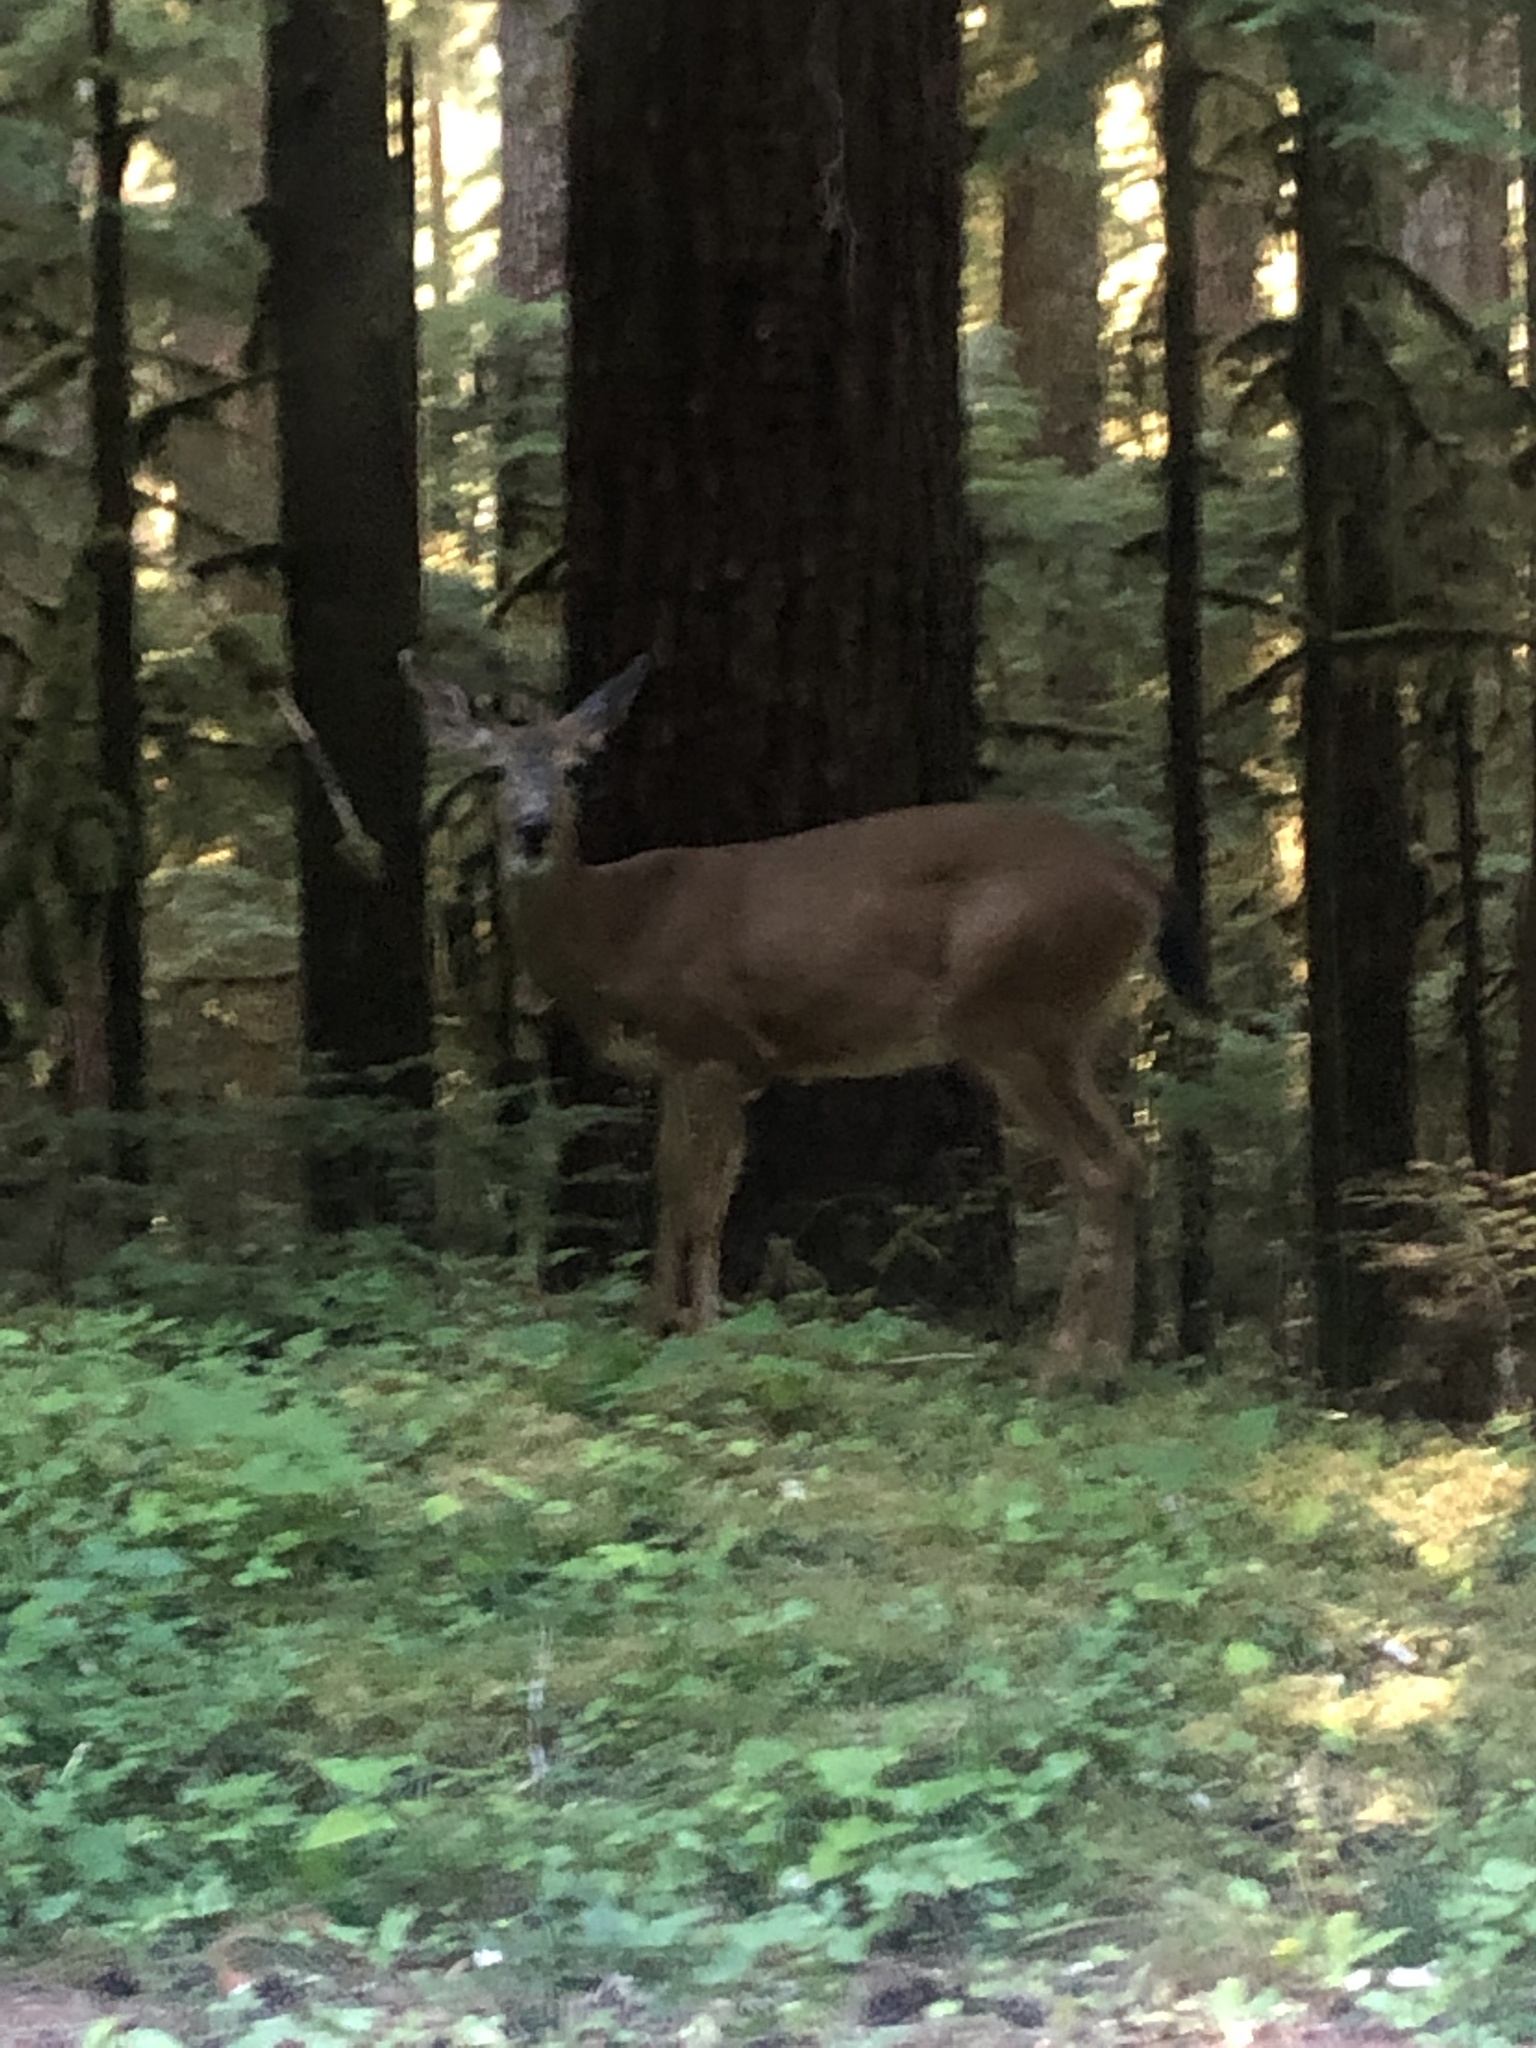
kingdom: Animalia
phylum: Chordata
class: Mammalia
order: Artiodactyla
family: Cervidae
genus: Odocoileus
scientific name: Odocoileus hemionus
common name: Mule deer
